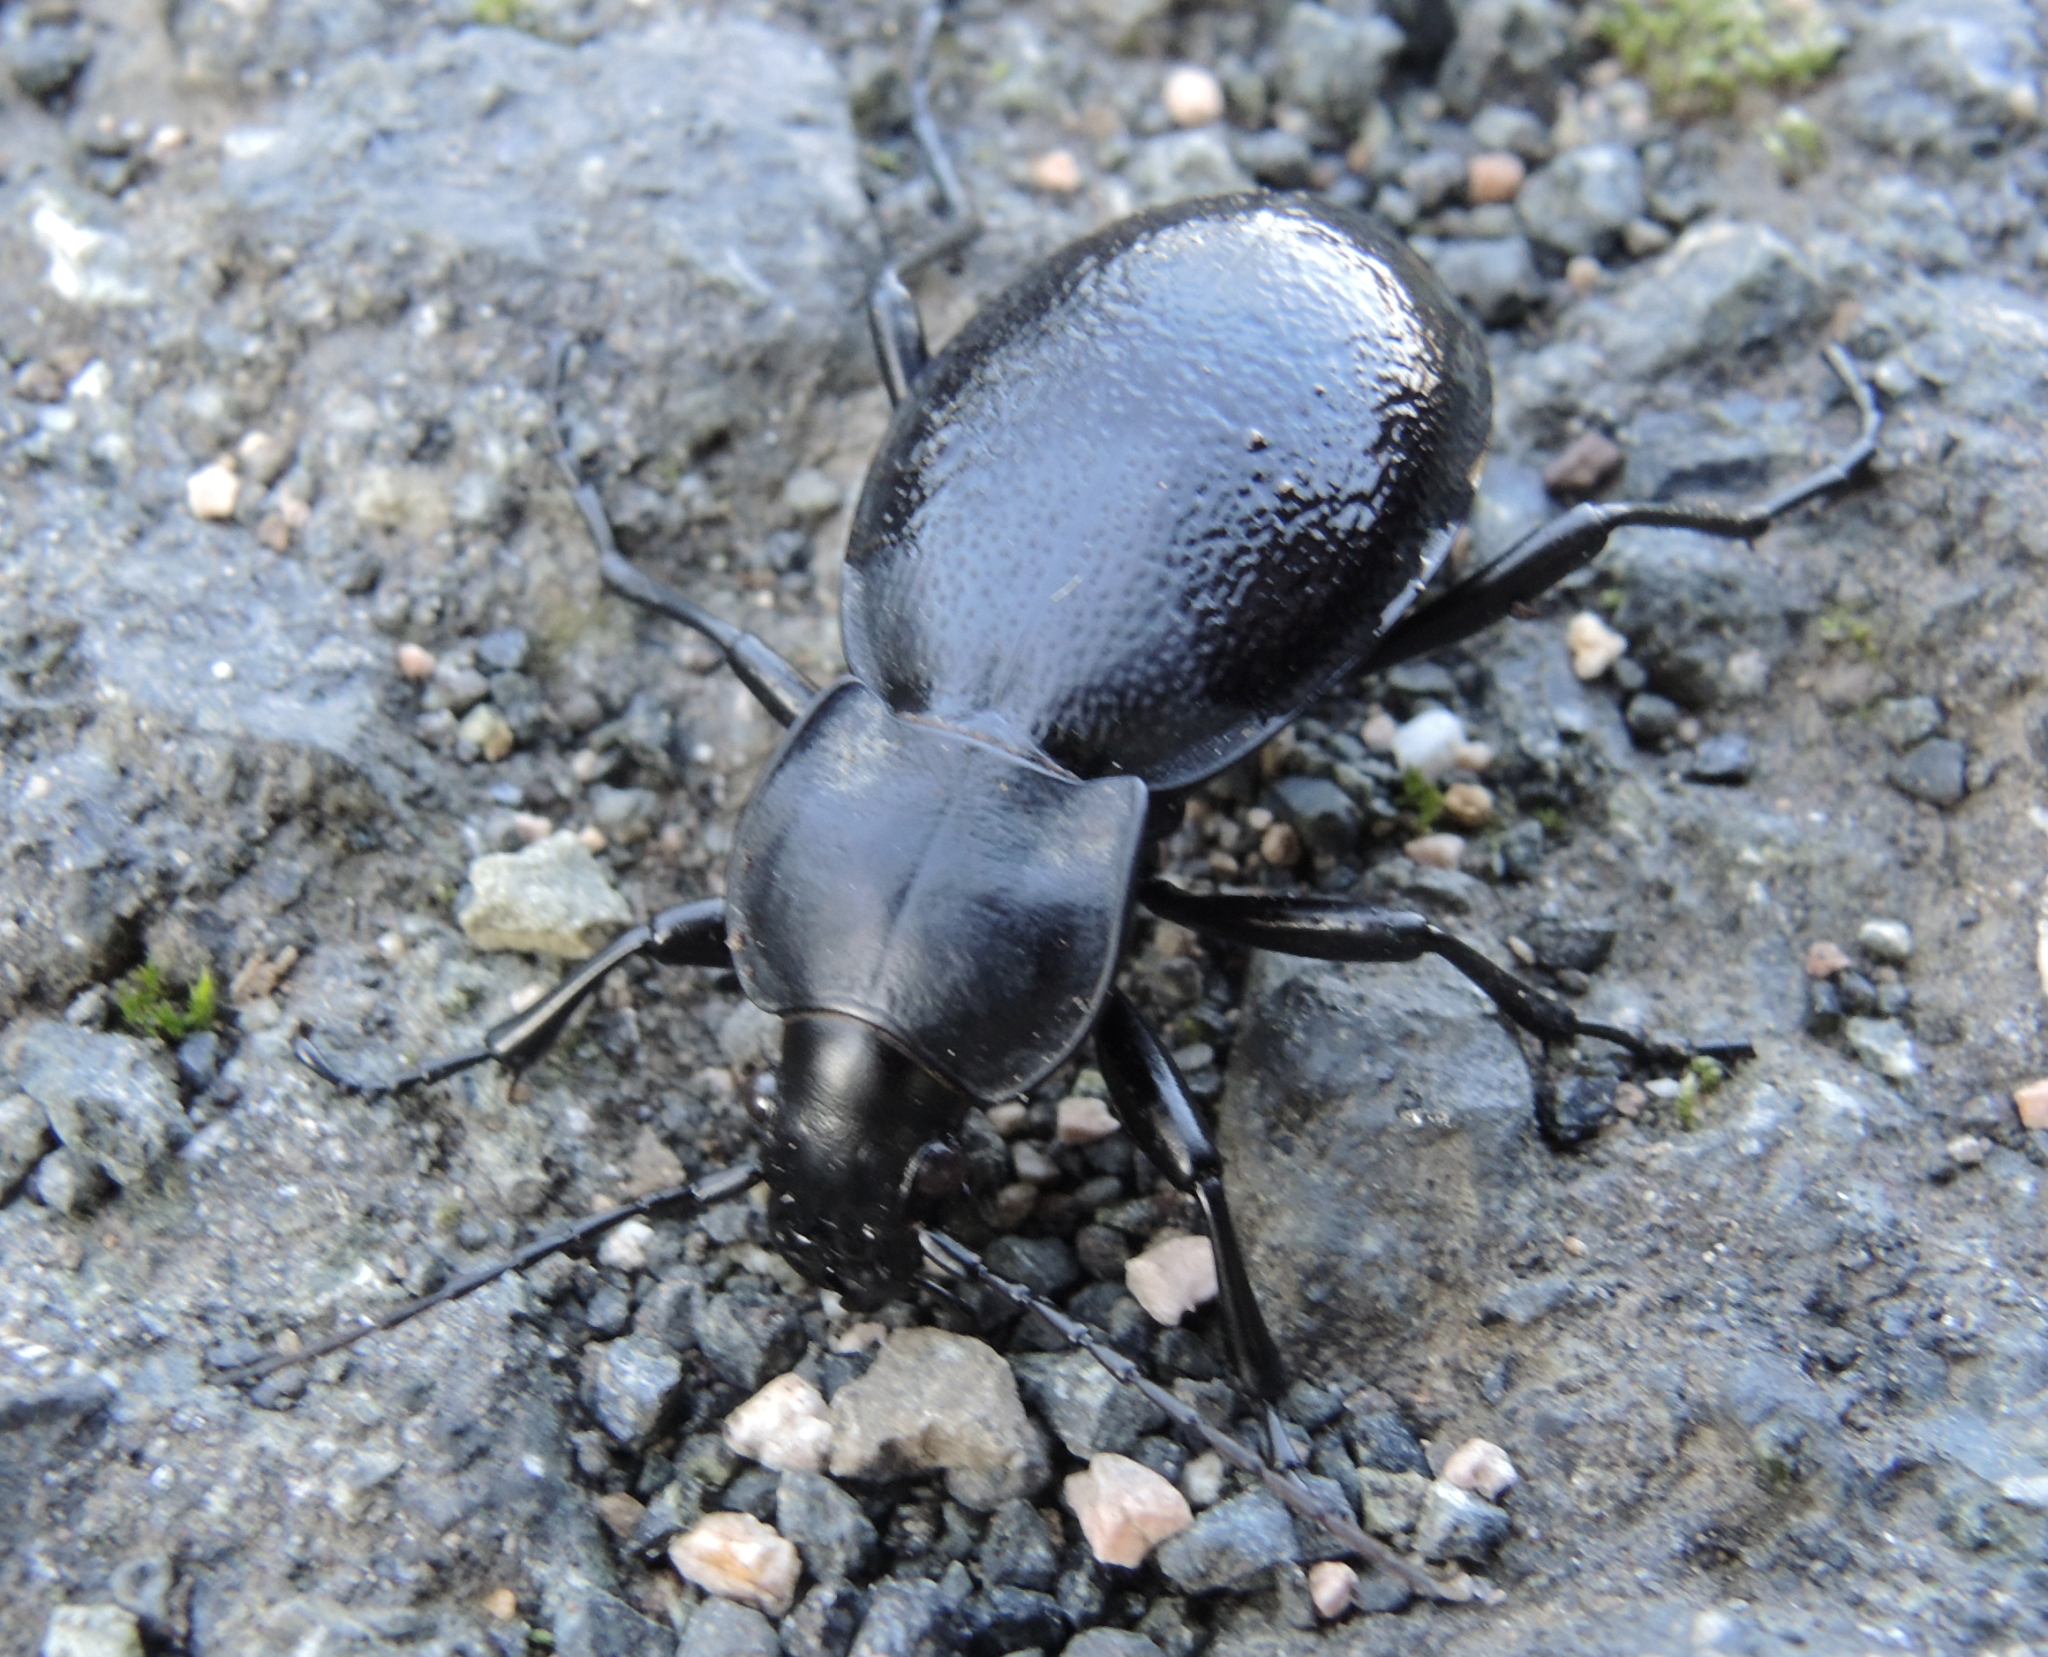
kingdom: Animalia
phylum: Arthropoda
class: Insecta
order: Coleoptera
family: Carabidae
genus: Carabus
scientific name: Carabus coriaceus
